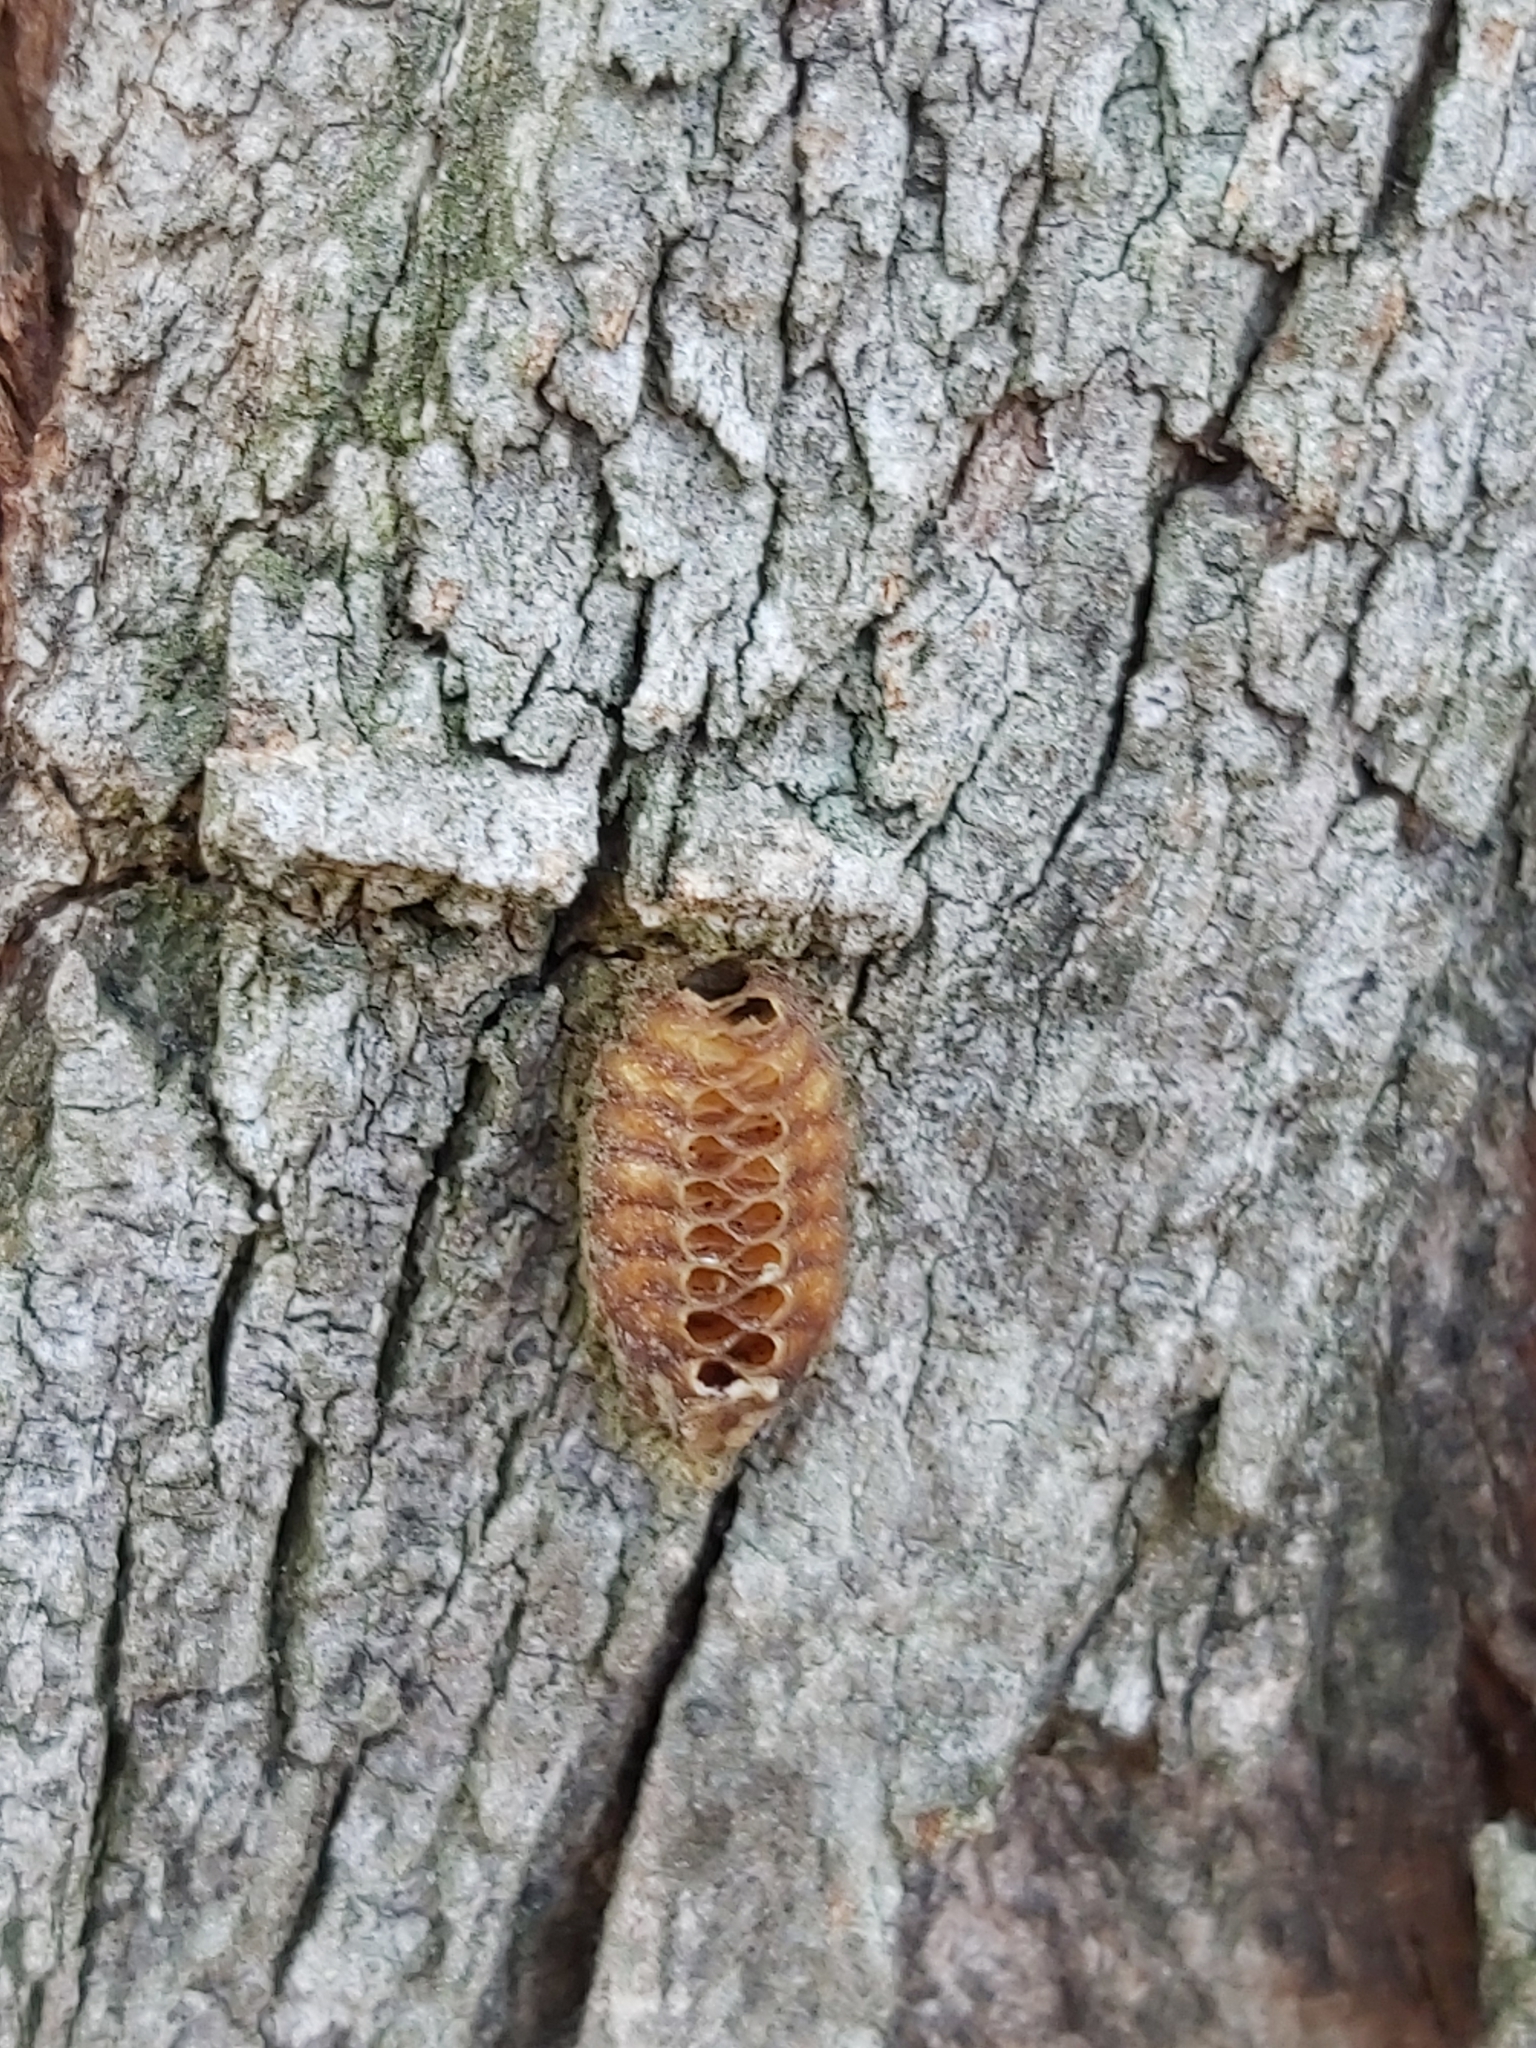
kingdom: Animalia
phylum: Arthropoda
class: Insecta
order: Mantodea
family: Mantidae
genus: Orthodera
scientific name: Orthodera ministralis
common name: Mantis
